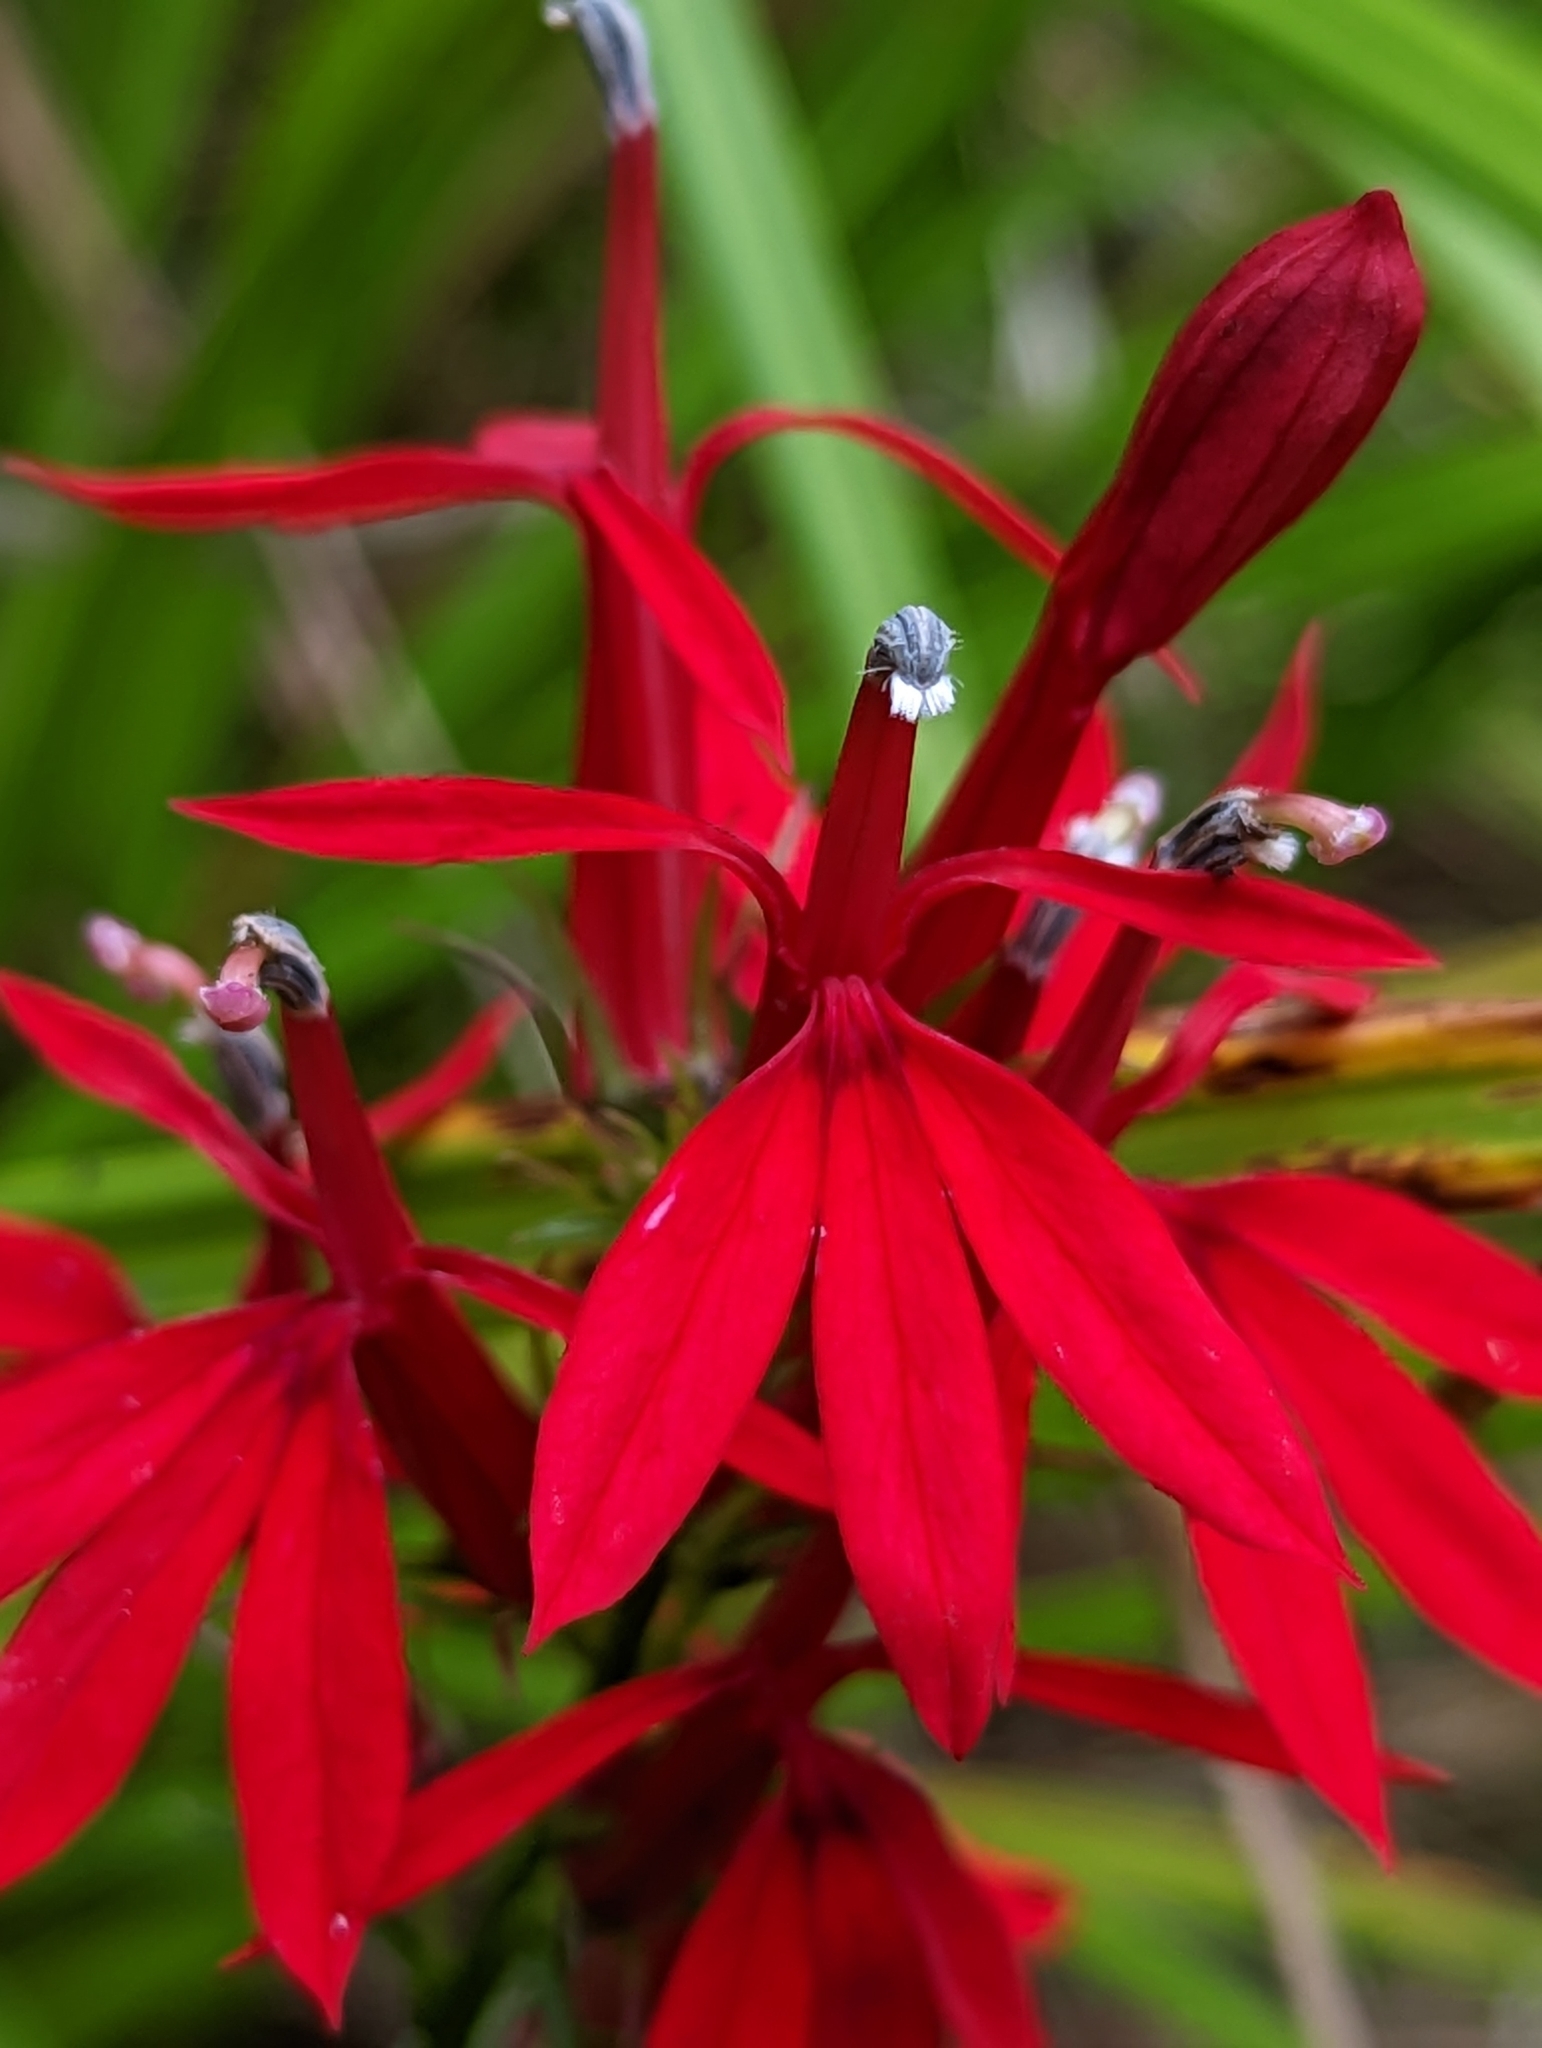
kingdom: Plantae
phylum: Tracheophyta
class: Magnoliopsida
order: Asterales
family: Campanulaceae
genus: Lobelia
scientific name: Lobelia cardinalis
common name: Cardinal flower
